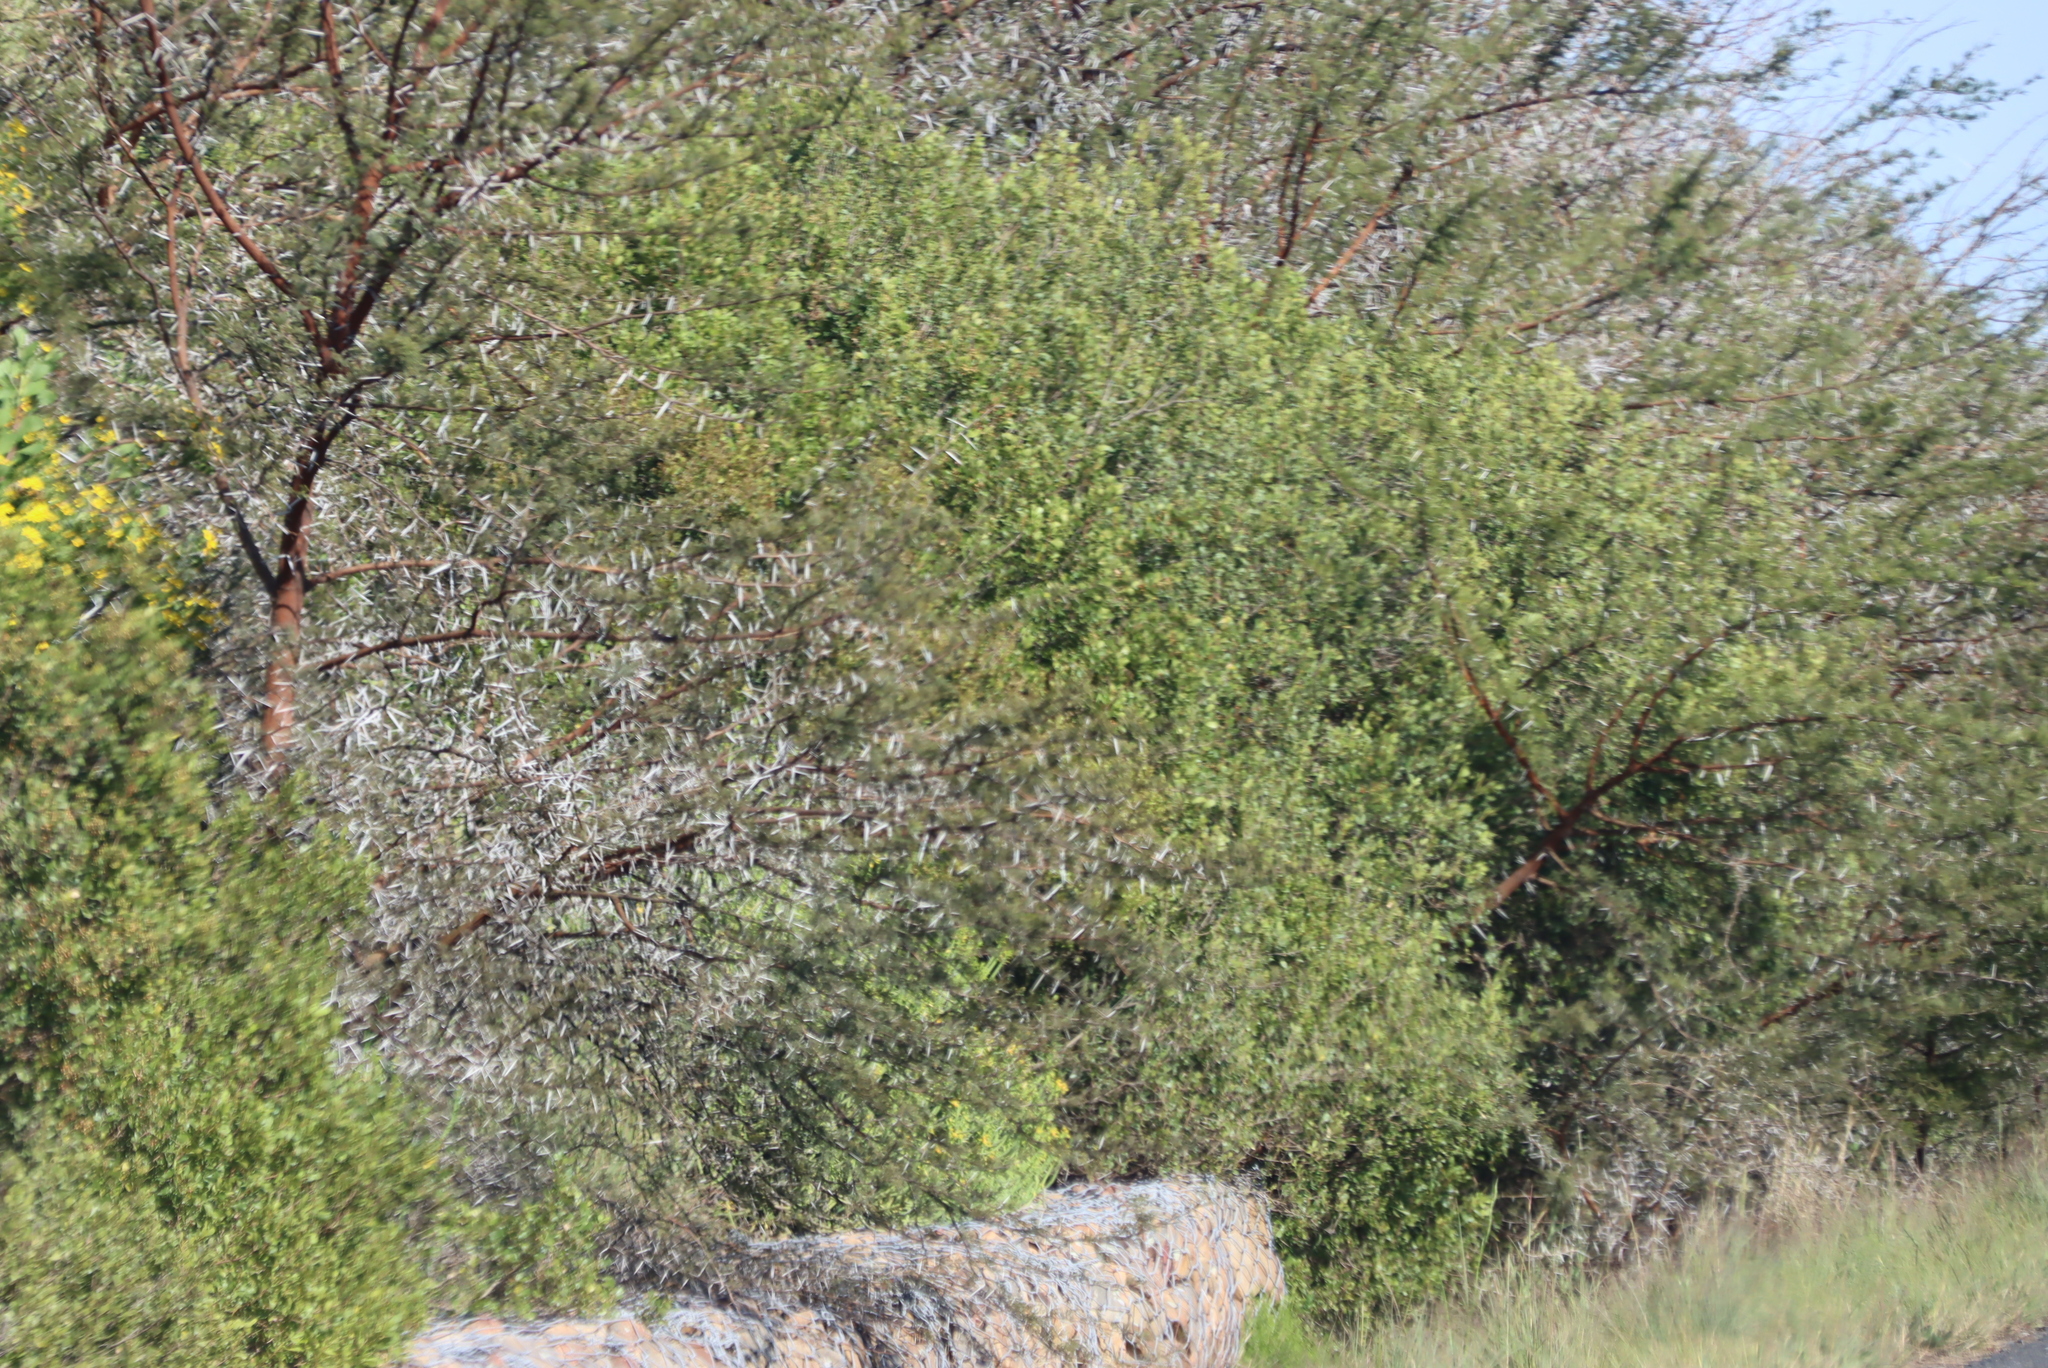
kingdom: Plantae
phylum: Tracheophyta
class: Magnoliopsida
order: Fabales
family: Fabaceae
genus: Vachellia
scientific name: Vachellia karroo
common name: Sweet thorn
